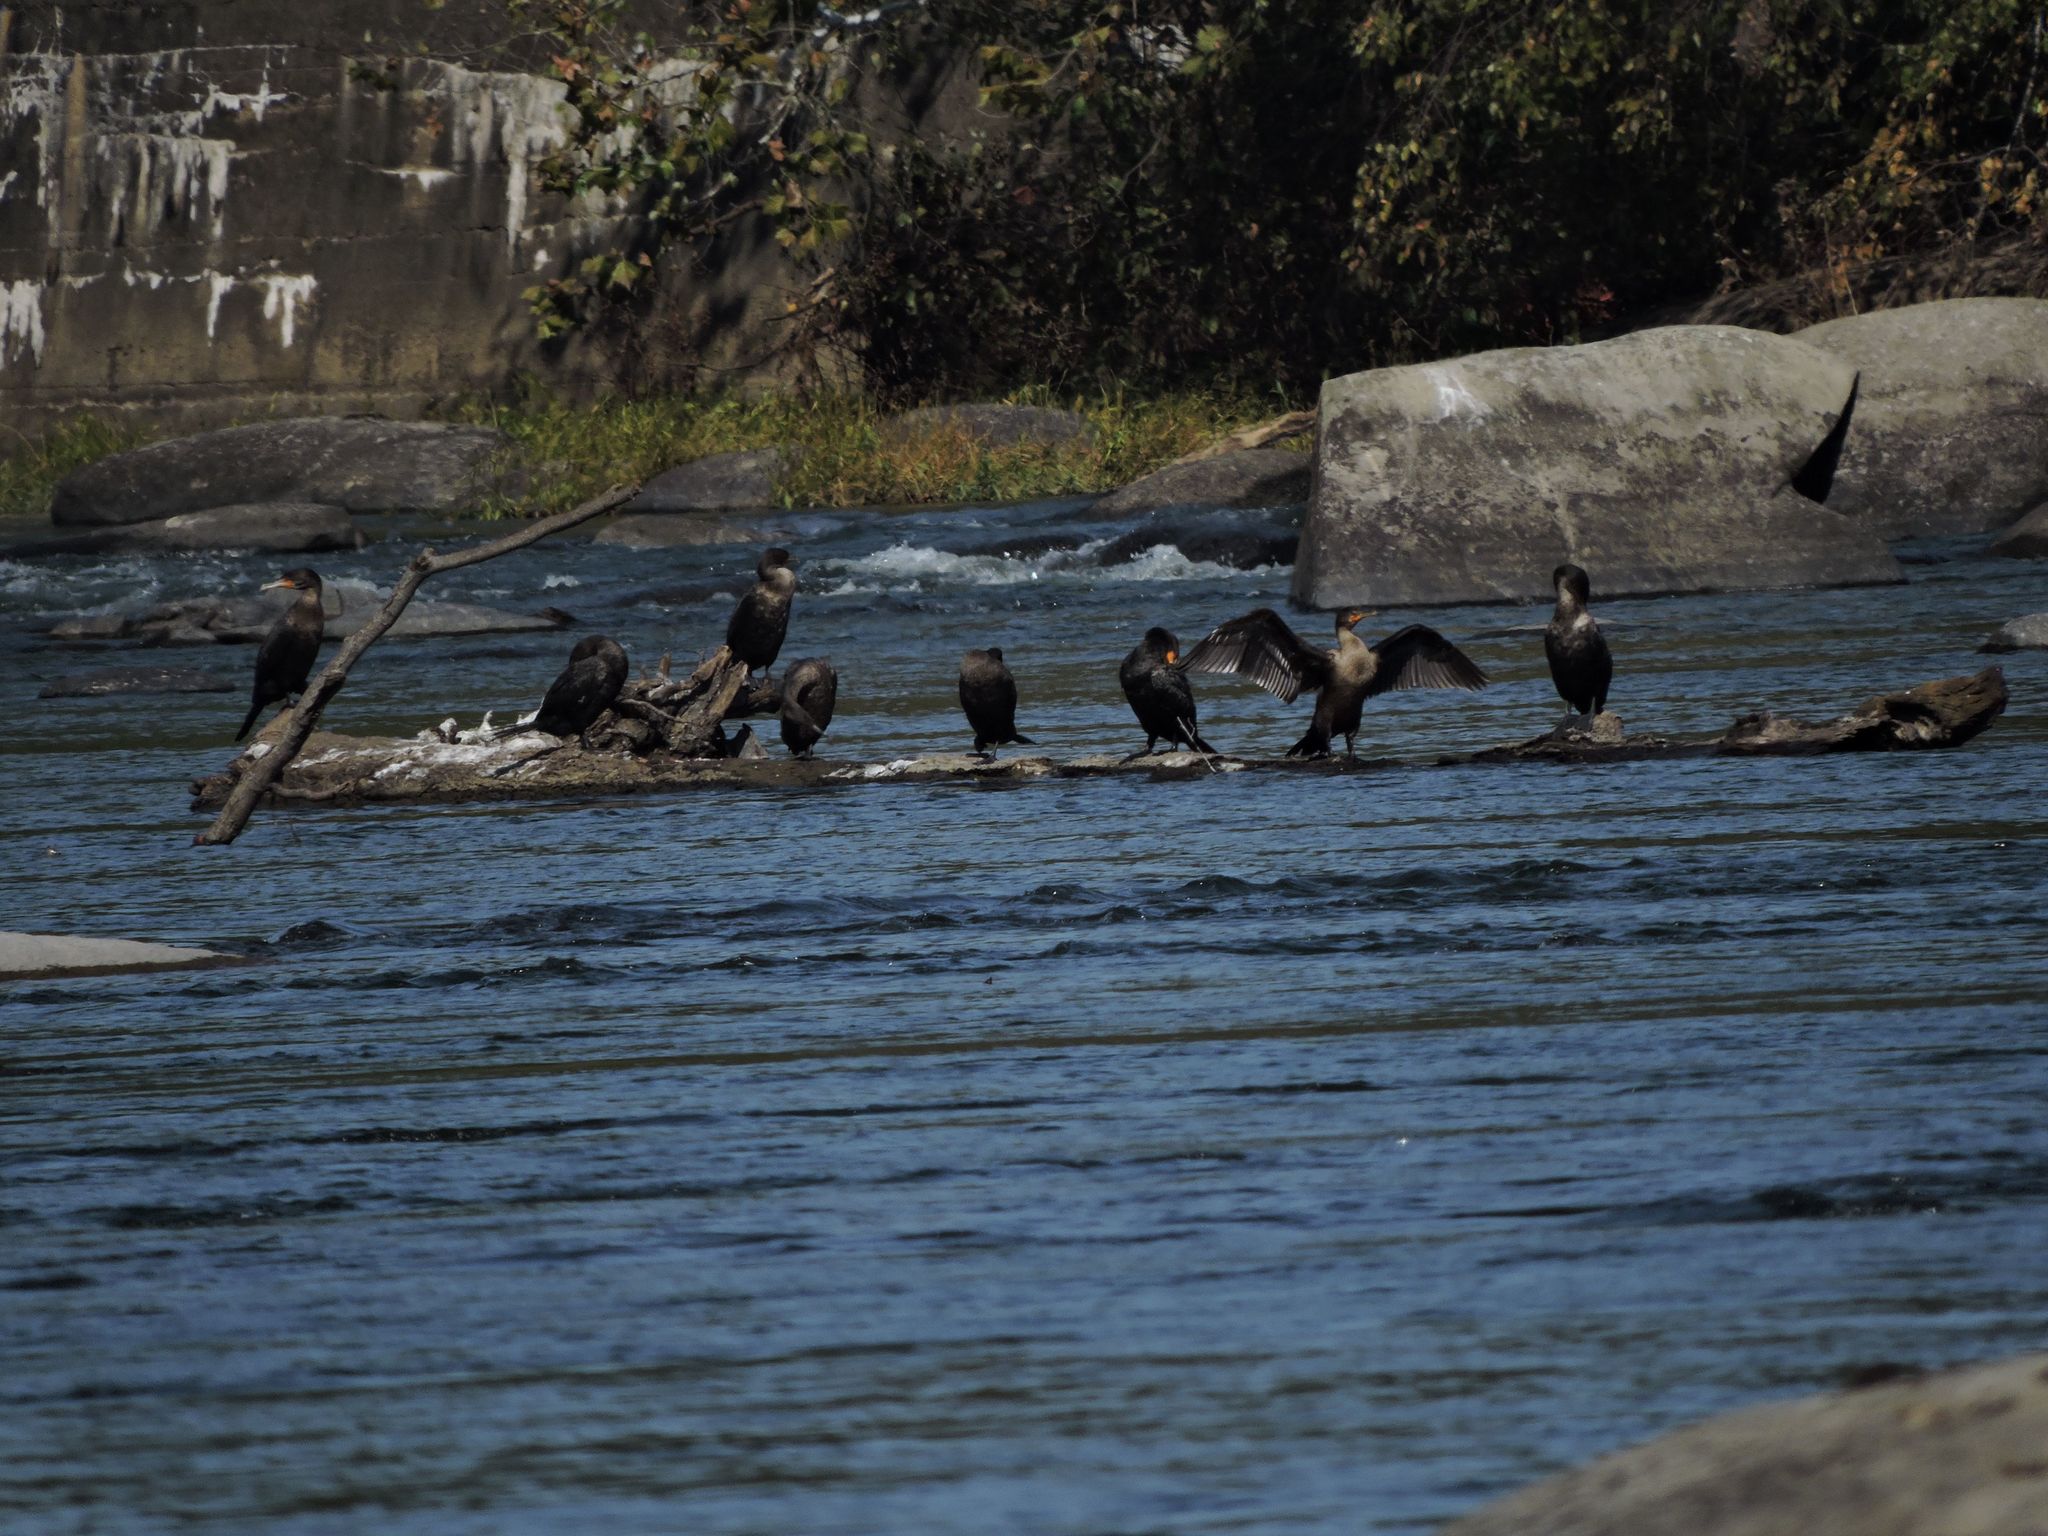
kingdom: Animalia
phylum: Chordata
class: Aves
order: Suliformes
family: Phalacrocoracidae
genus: Phalacrocorax
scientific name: Phalacrocorax auritus
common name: Double-crested cormorant
